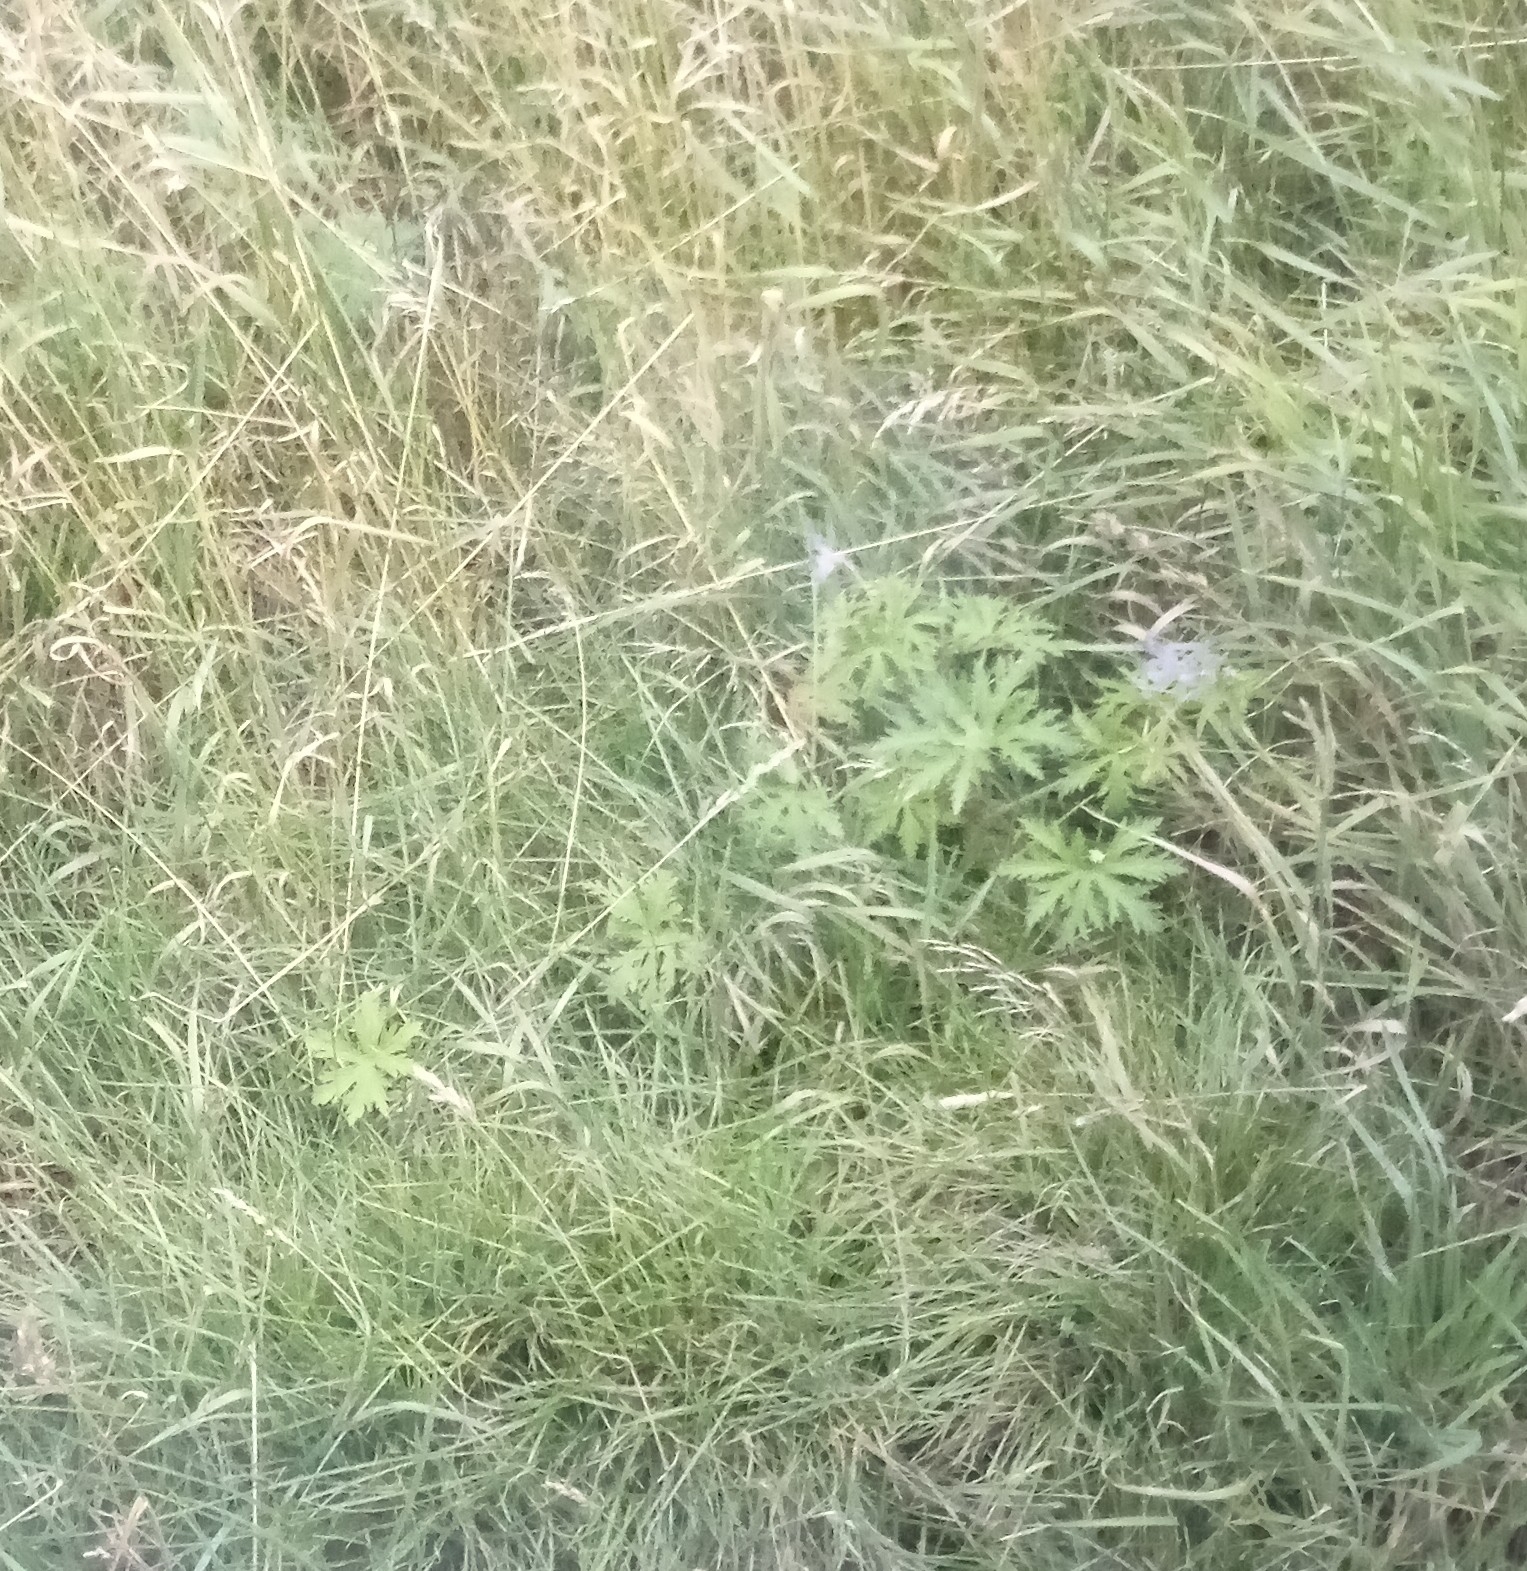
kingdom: Plantae
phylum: Tracheophyta
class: Magnoliopsida
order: Geraniales
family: Geraniaceae
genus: Geranium
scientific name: Geranium pratense
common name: Meadow crane's-bill
